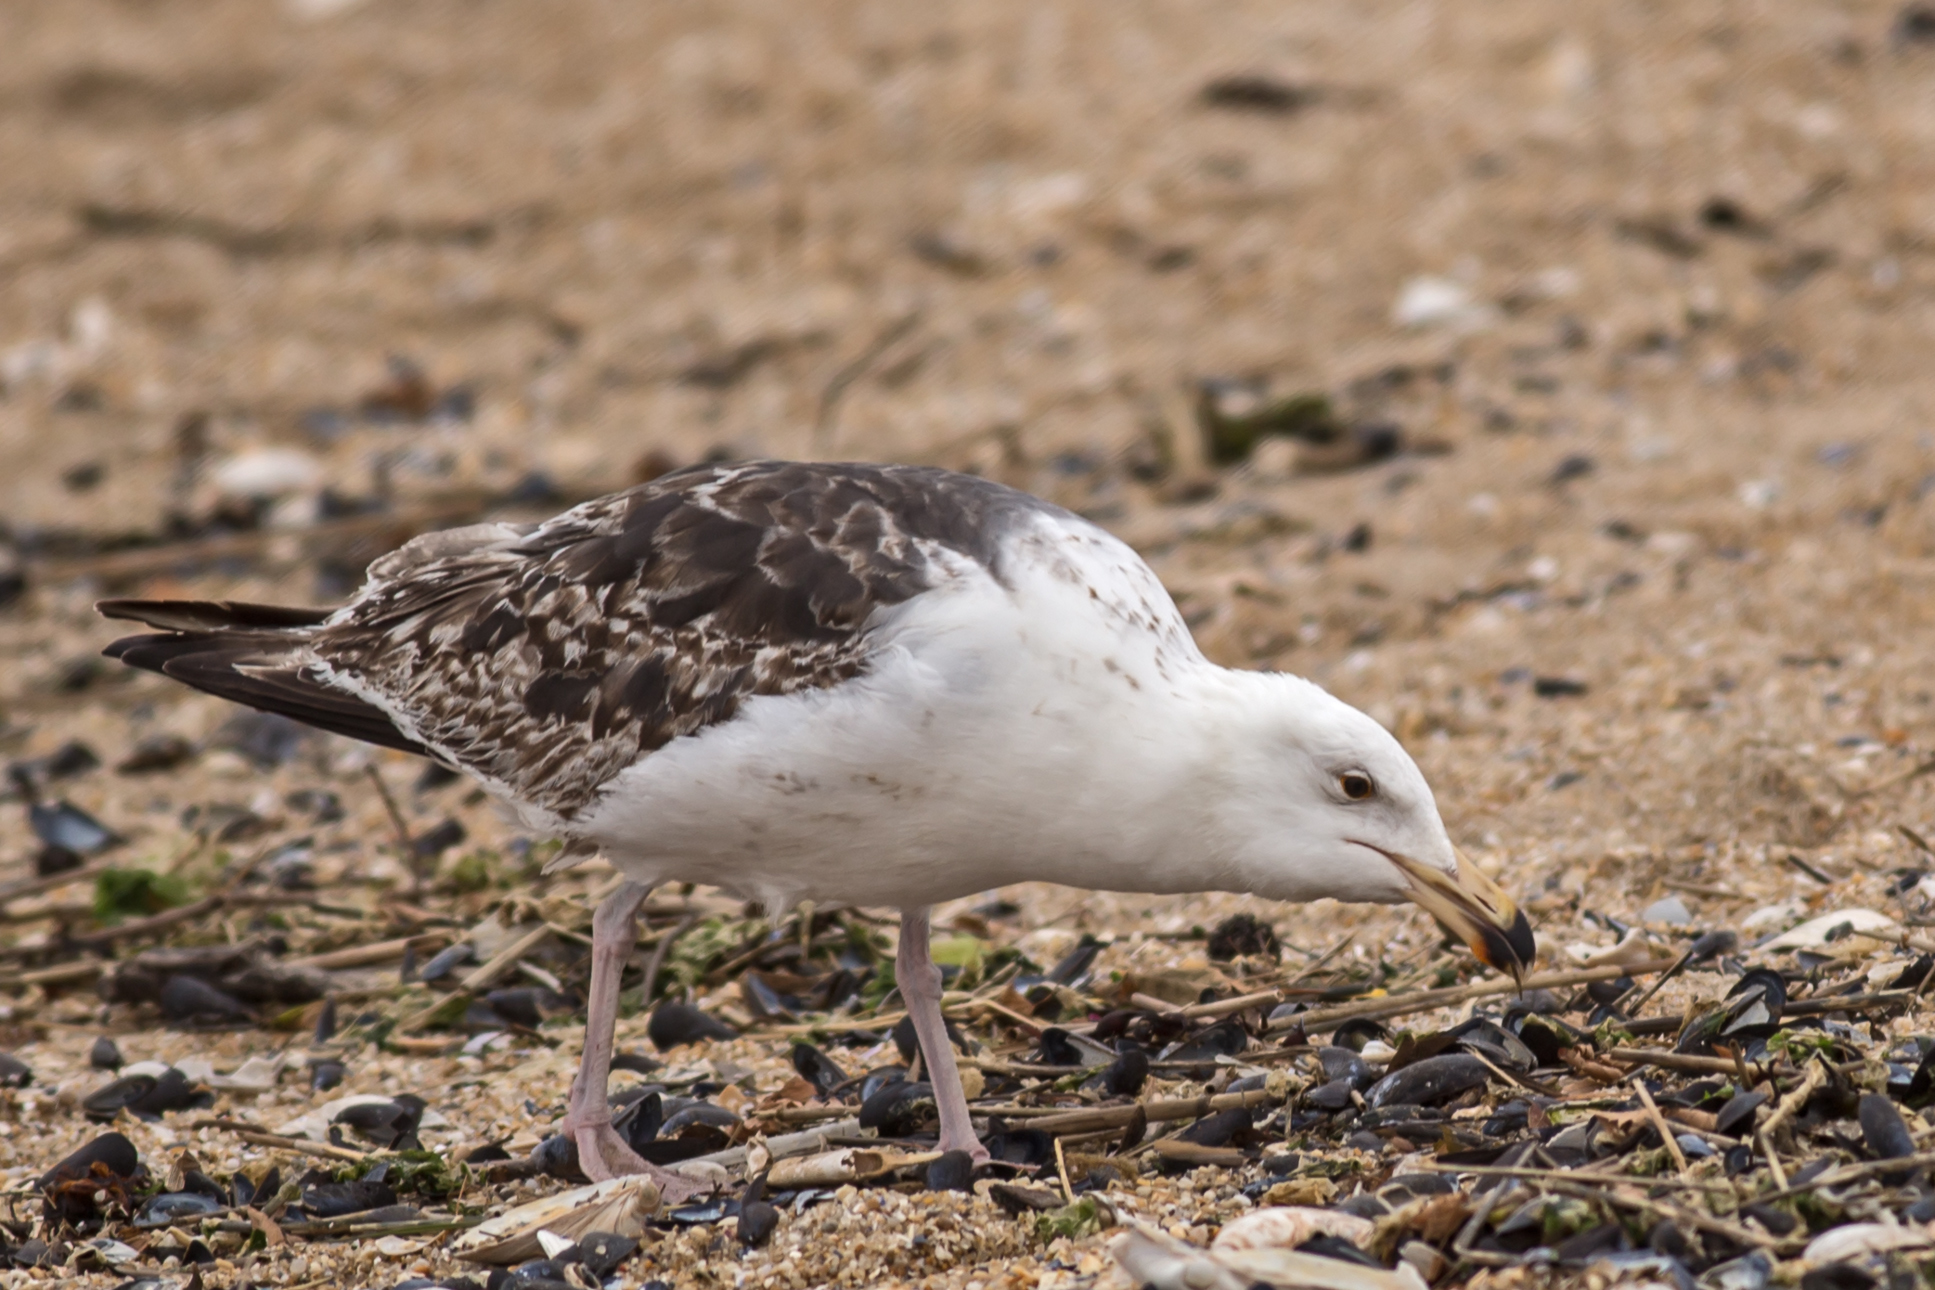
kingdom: Animalia
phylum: Chordata
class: Aves
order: Charadriiformes
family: Laridae
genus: Larus
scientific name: Larus marinus
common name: Great black-backed gull
